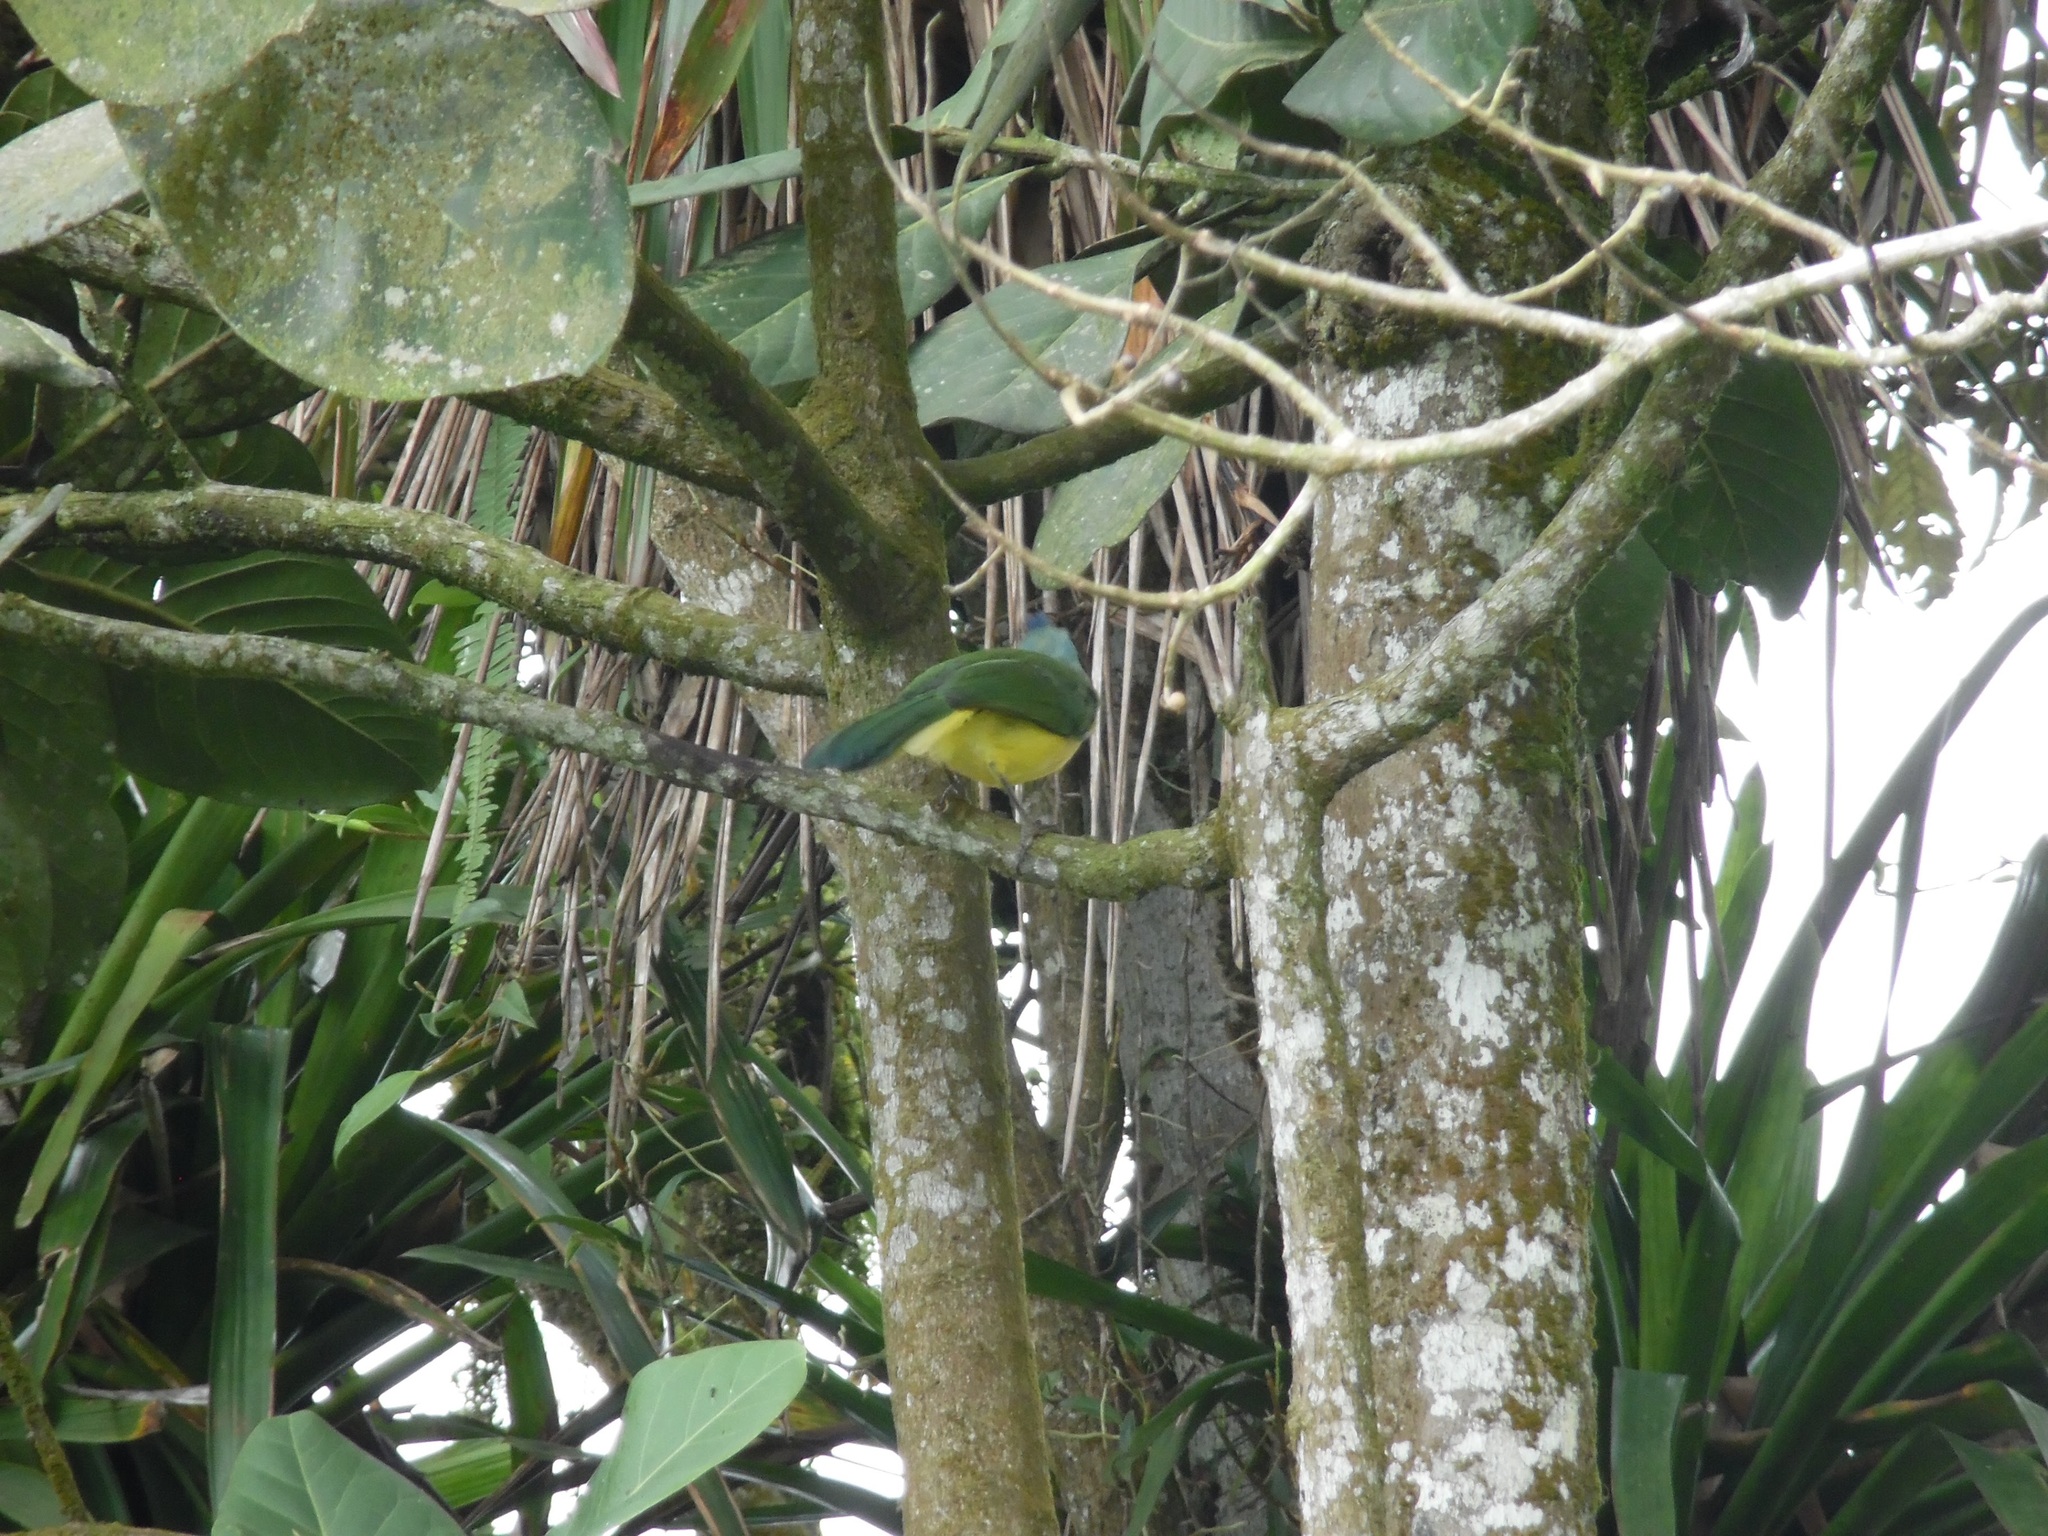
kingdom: Animalia
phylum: Chordata
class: Aves
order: Passeriformes
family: Corvidae
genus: Cyanocorax
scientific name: Cyanocorax yncas
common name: Green jay
